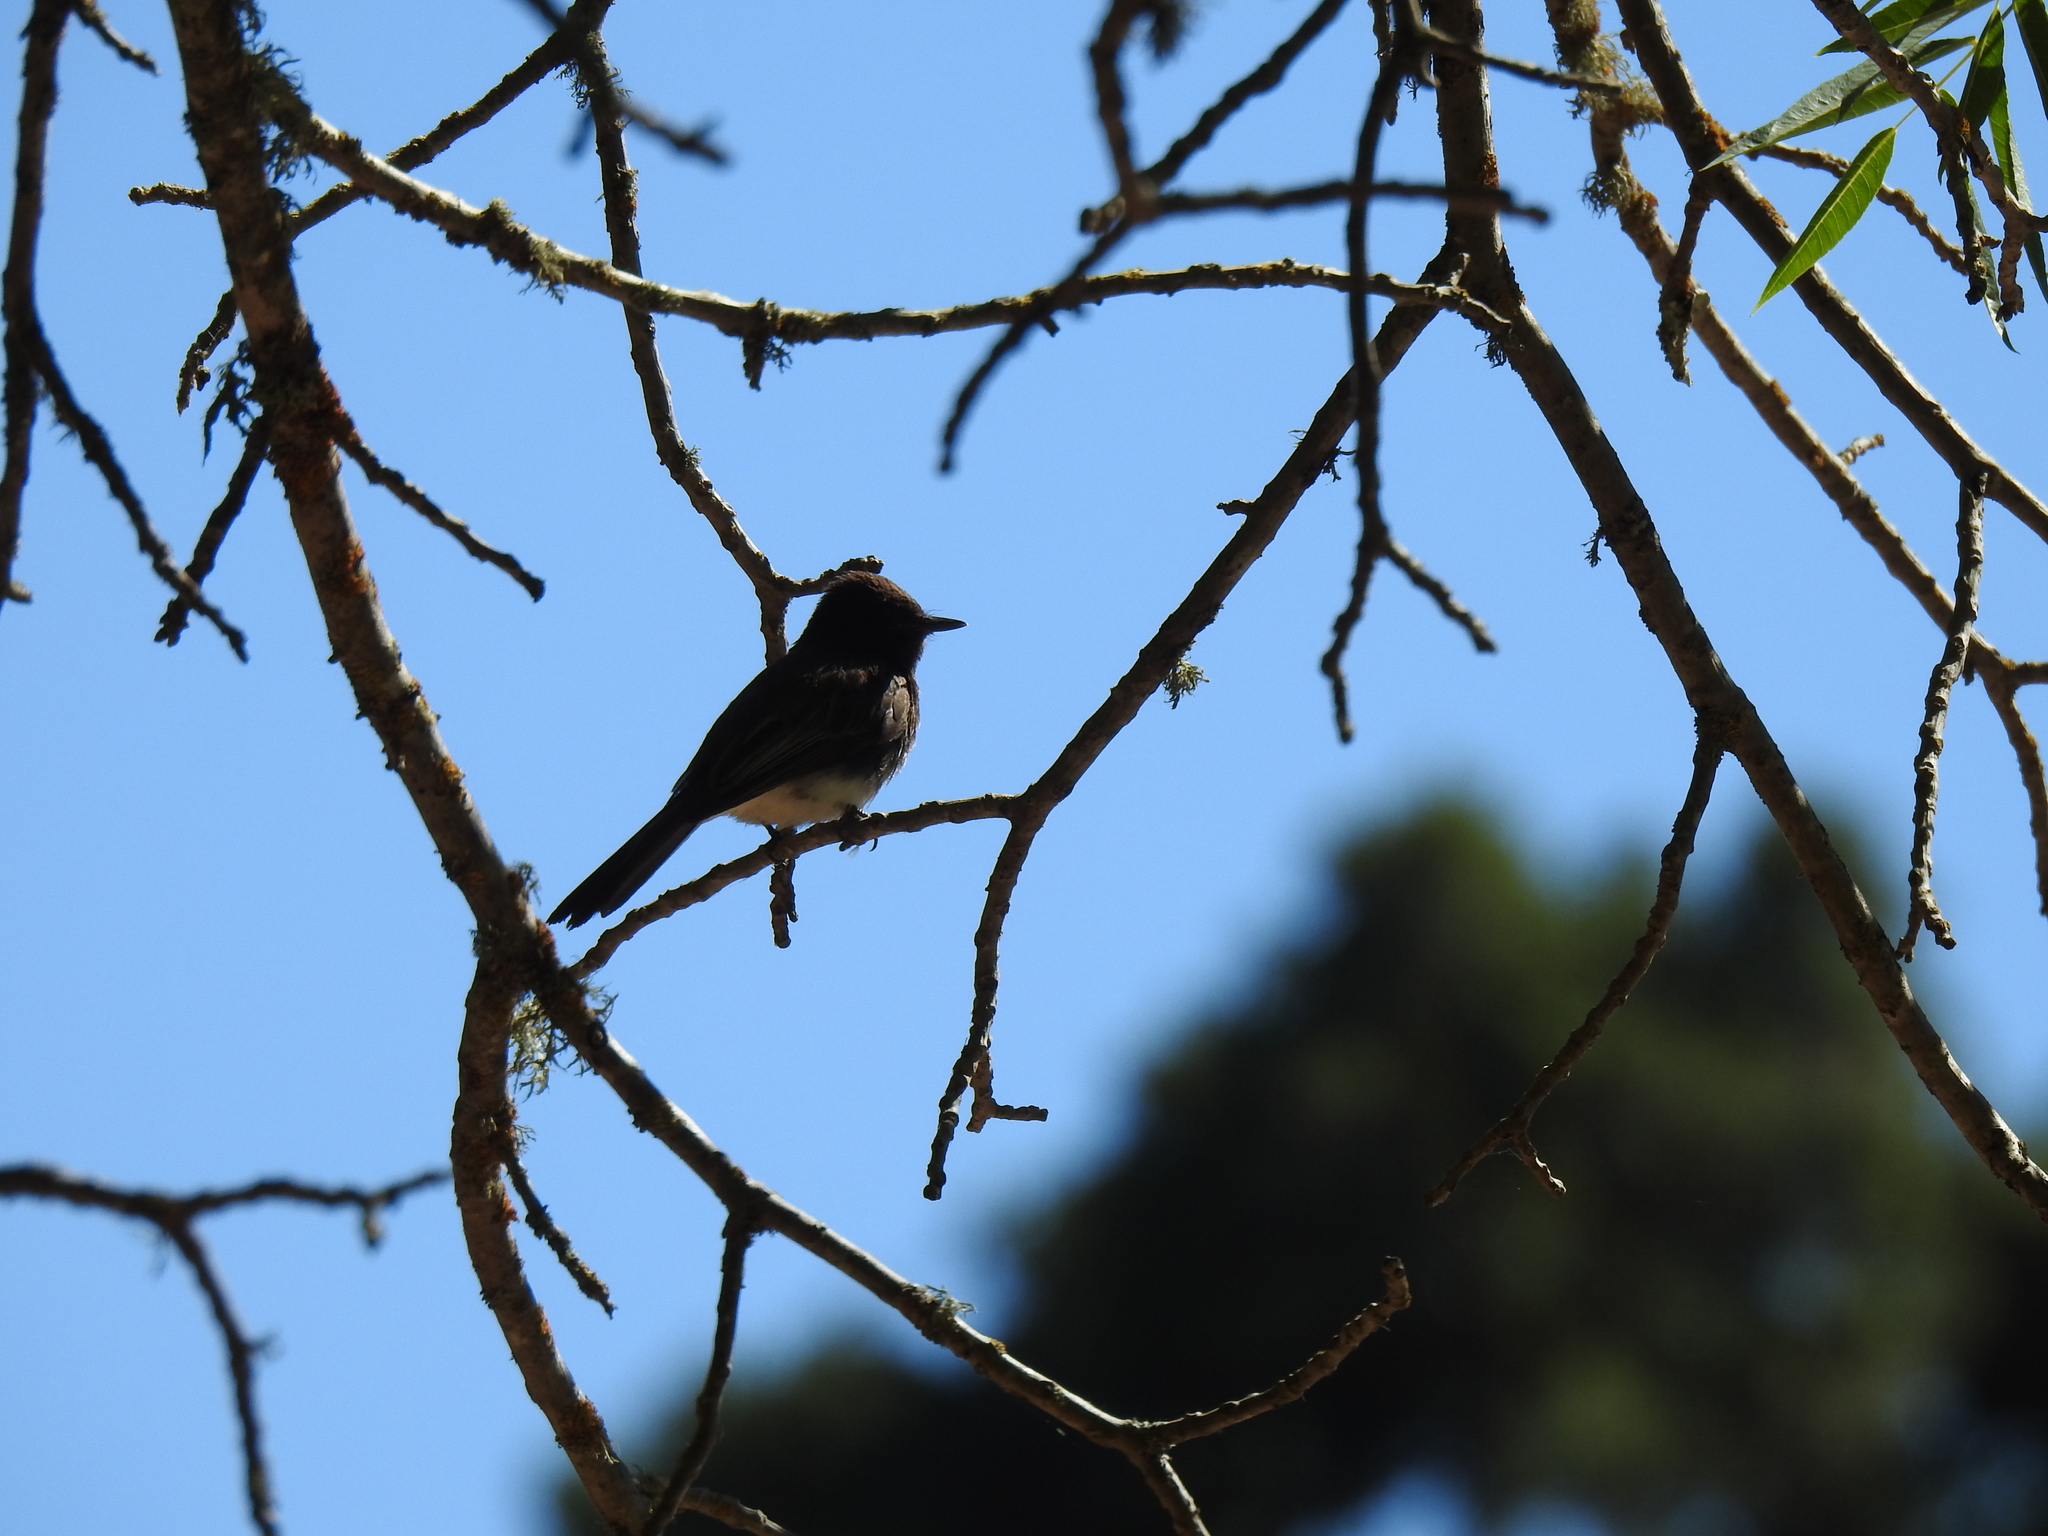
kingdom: Animalia
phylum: Chordata
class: Aves
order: Passeriformes
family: Tyrannidae
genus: Sayornis
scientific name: Sayornis nigricans
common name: Black phoebe
